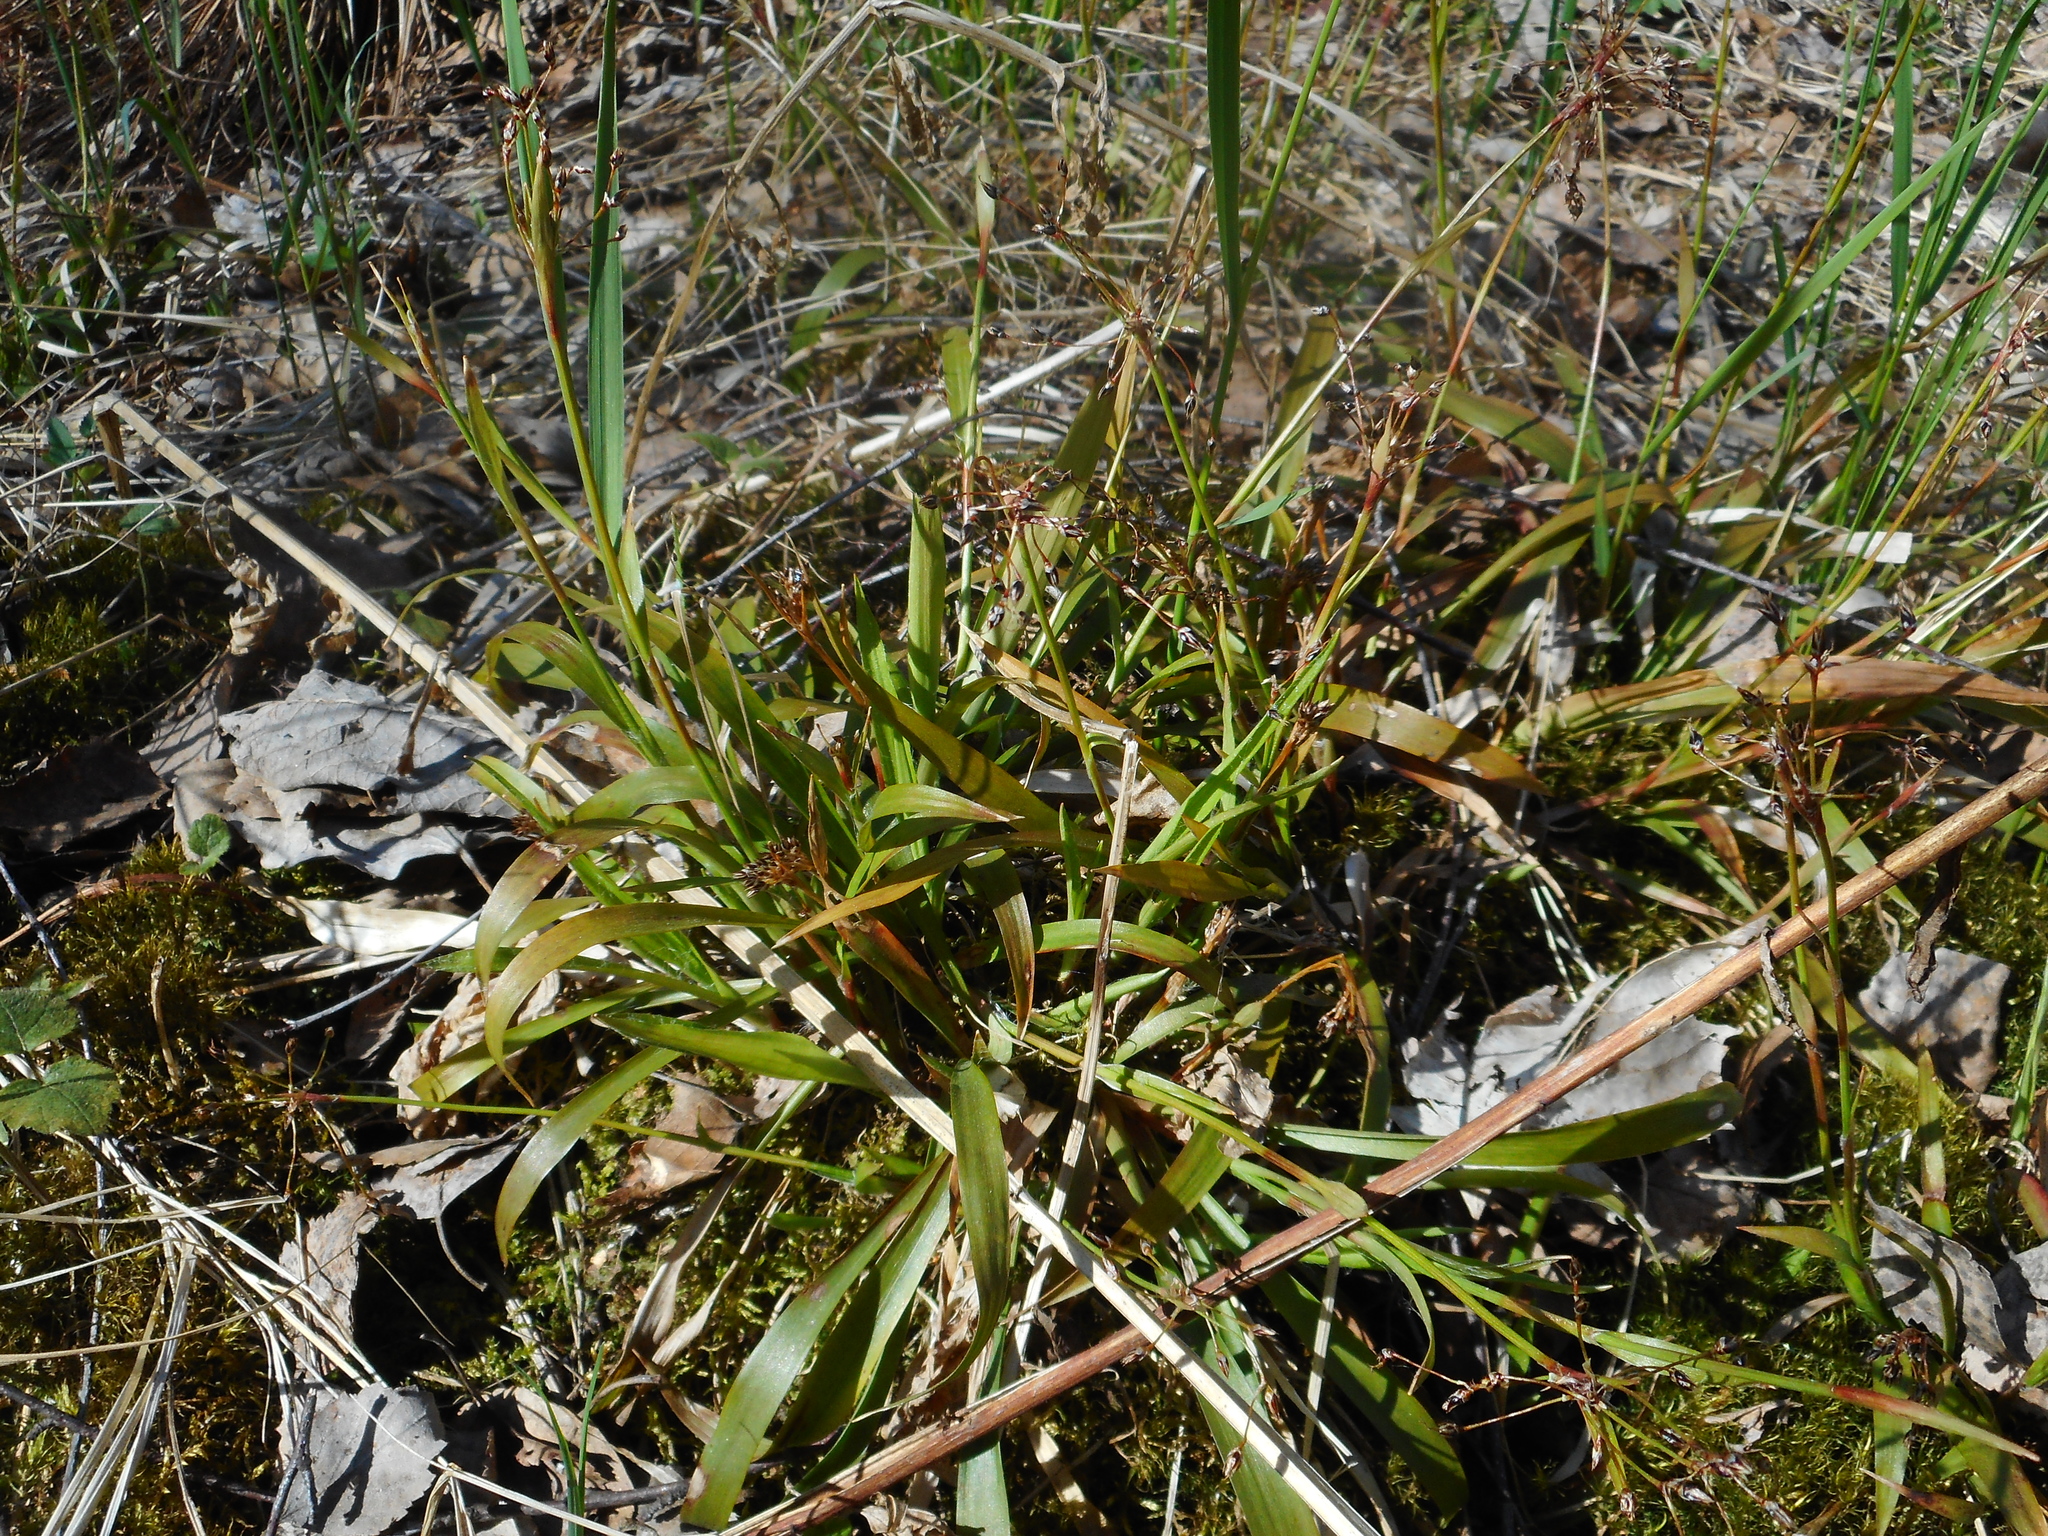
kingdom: Plantae
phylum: Tracheophyta
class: Liliopsida
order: Poales
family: Juncaceae
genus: Luzula
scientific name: Luzula pilosa
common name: Hairy wood-rush
